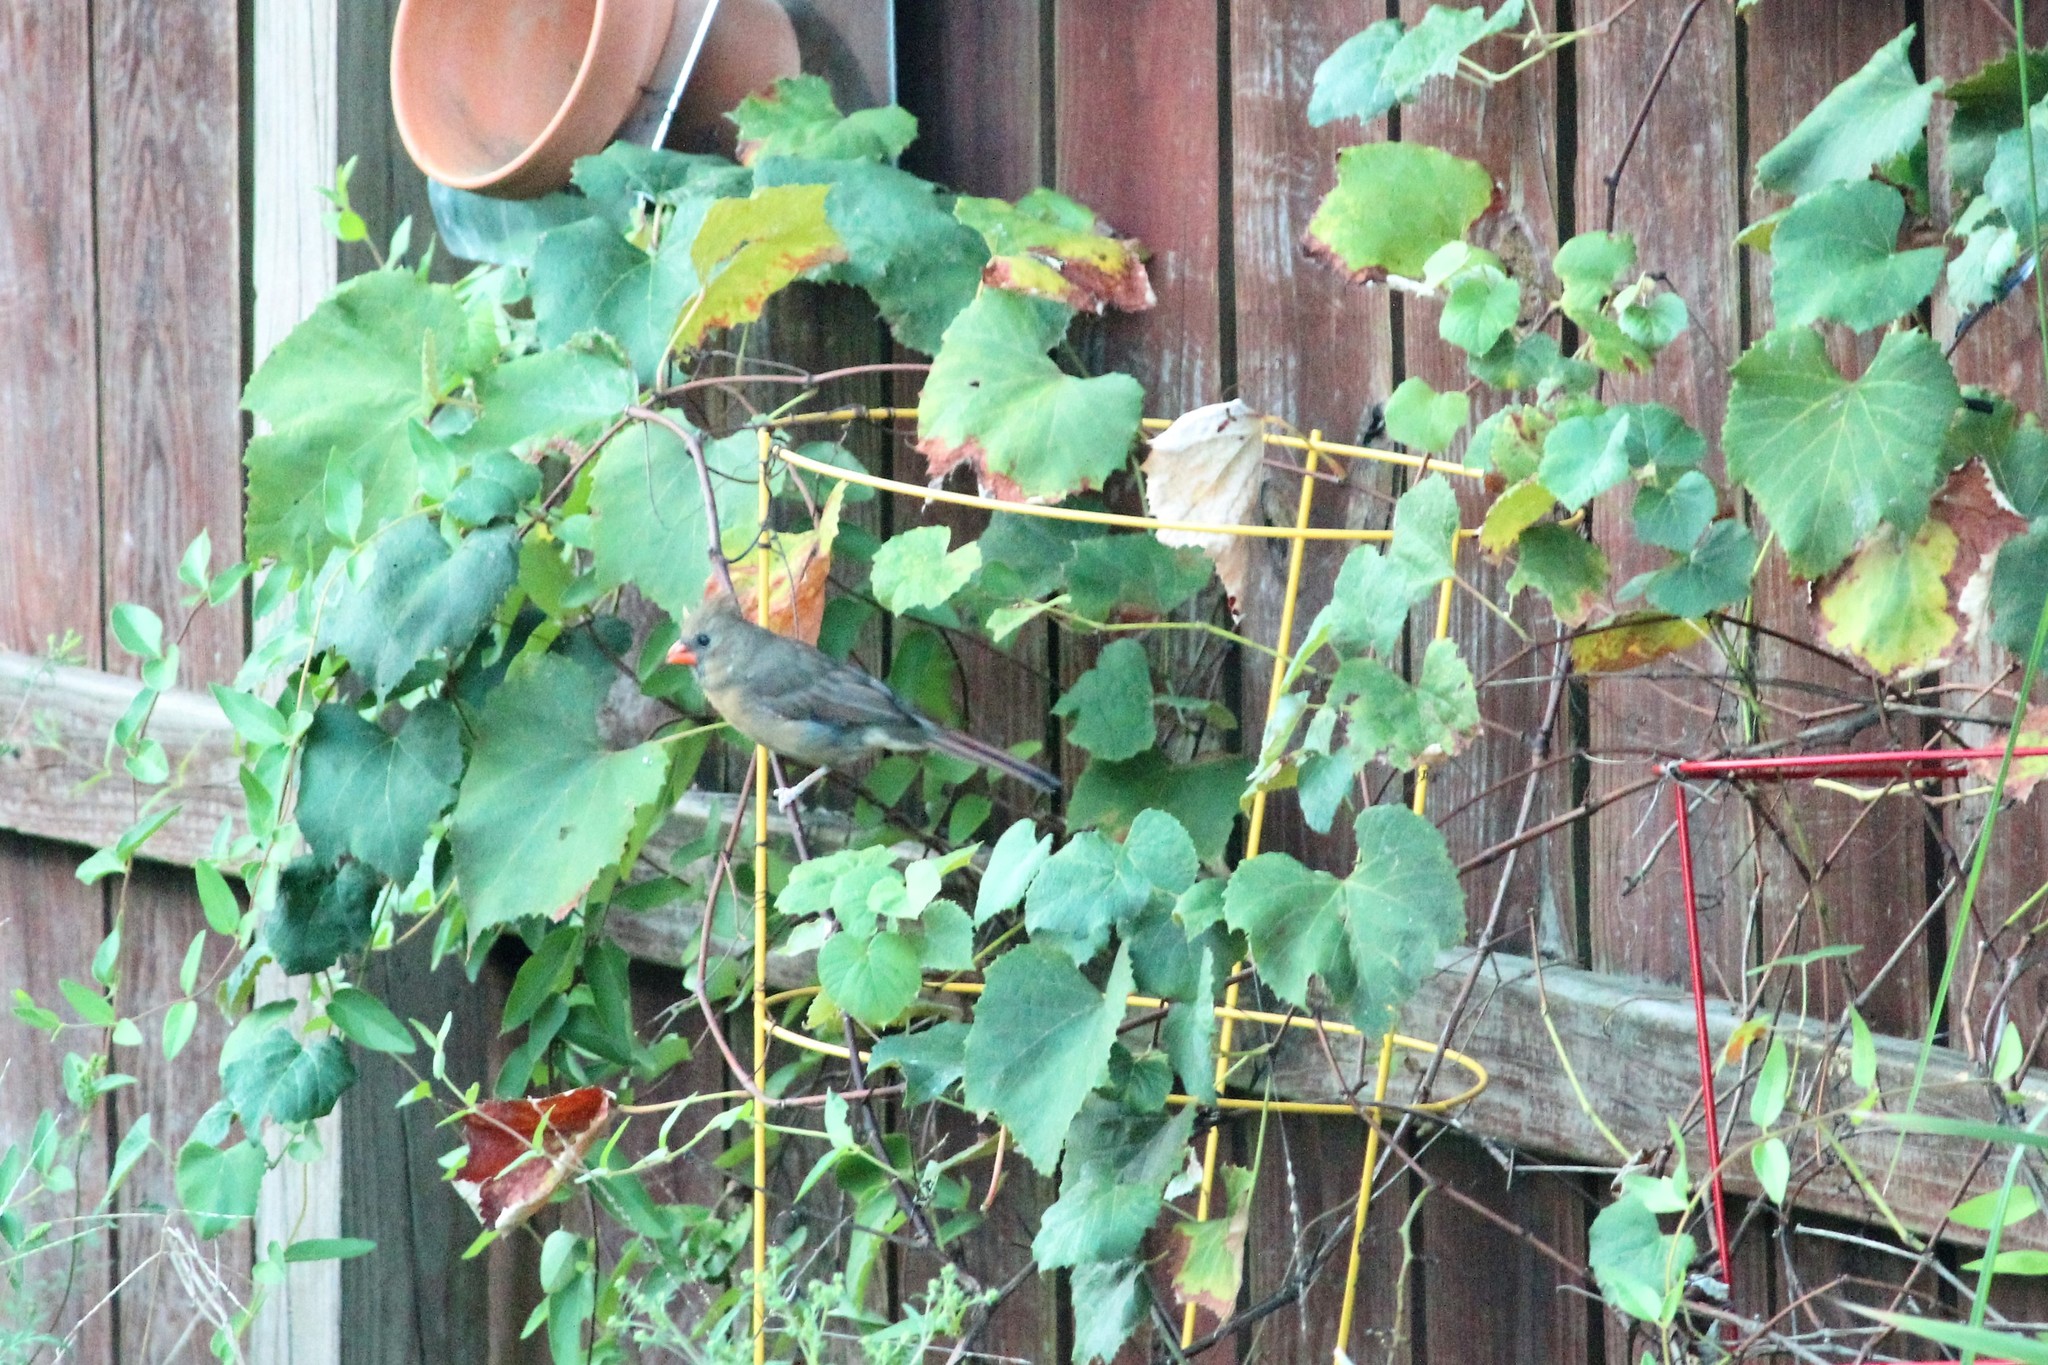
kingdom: Animalia
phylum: Chordata
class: Aves
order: Passeriformes
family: Cardinalidae
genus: Cardinalis
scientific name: Cardinalis cardinalis
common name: Northern cardinal
